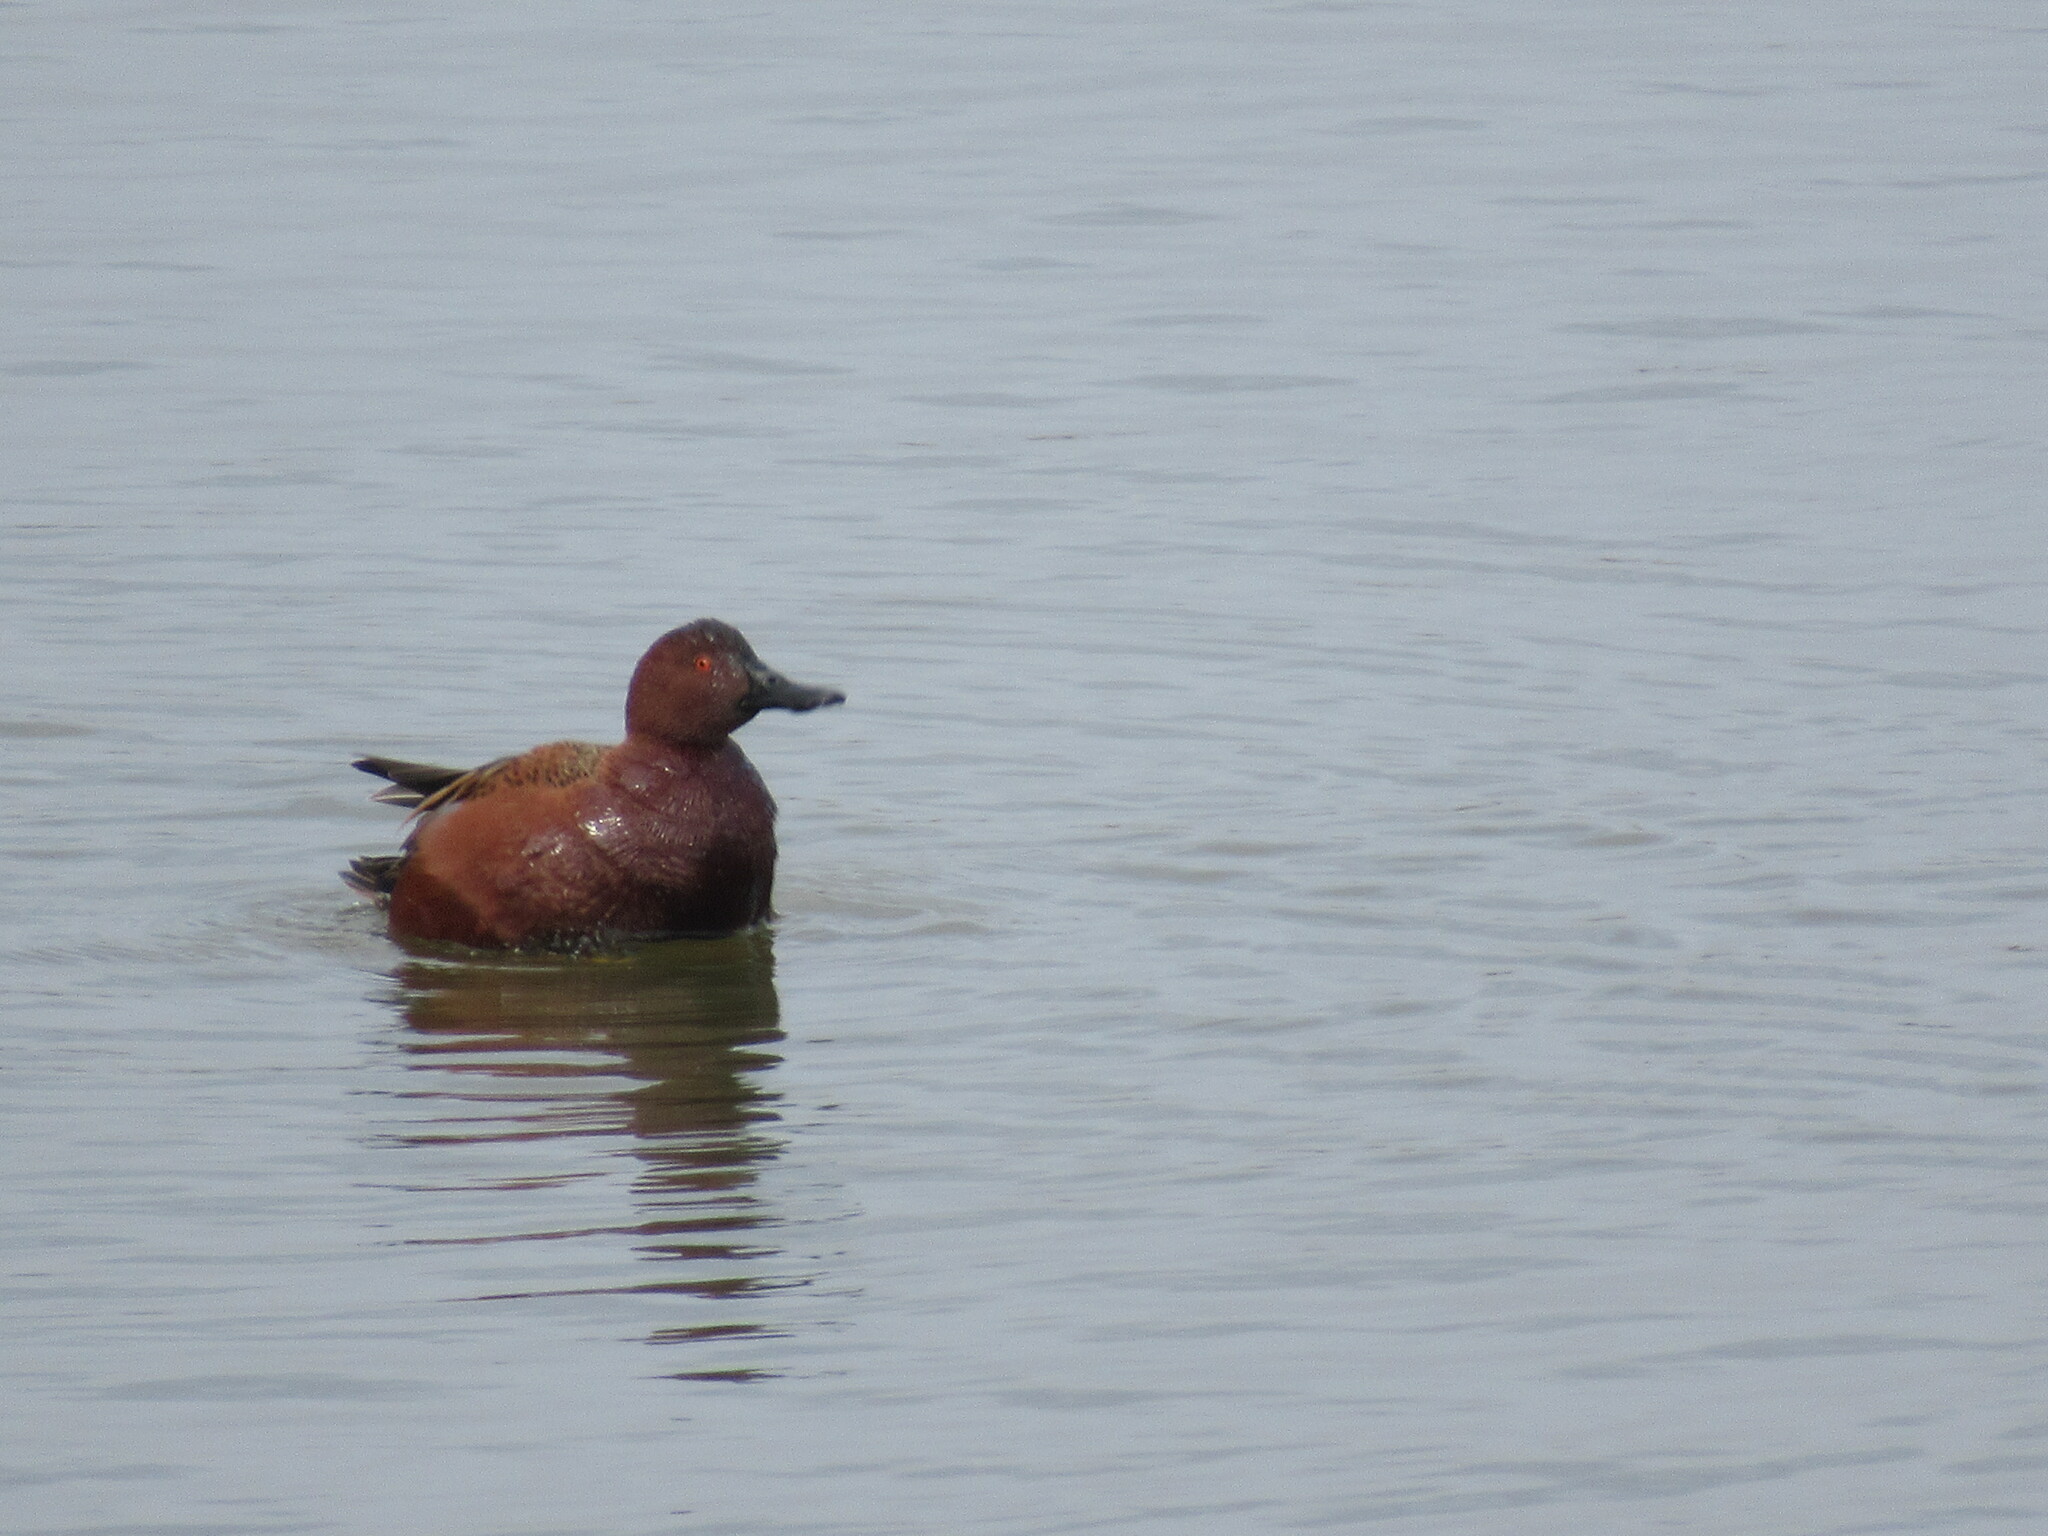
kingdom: Animalia
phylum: Chordata
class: Aves
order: Anseriformes
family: Anatidae
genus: Spatula
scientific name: Spatula cyanoptera
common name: Cinnamon teal
